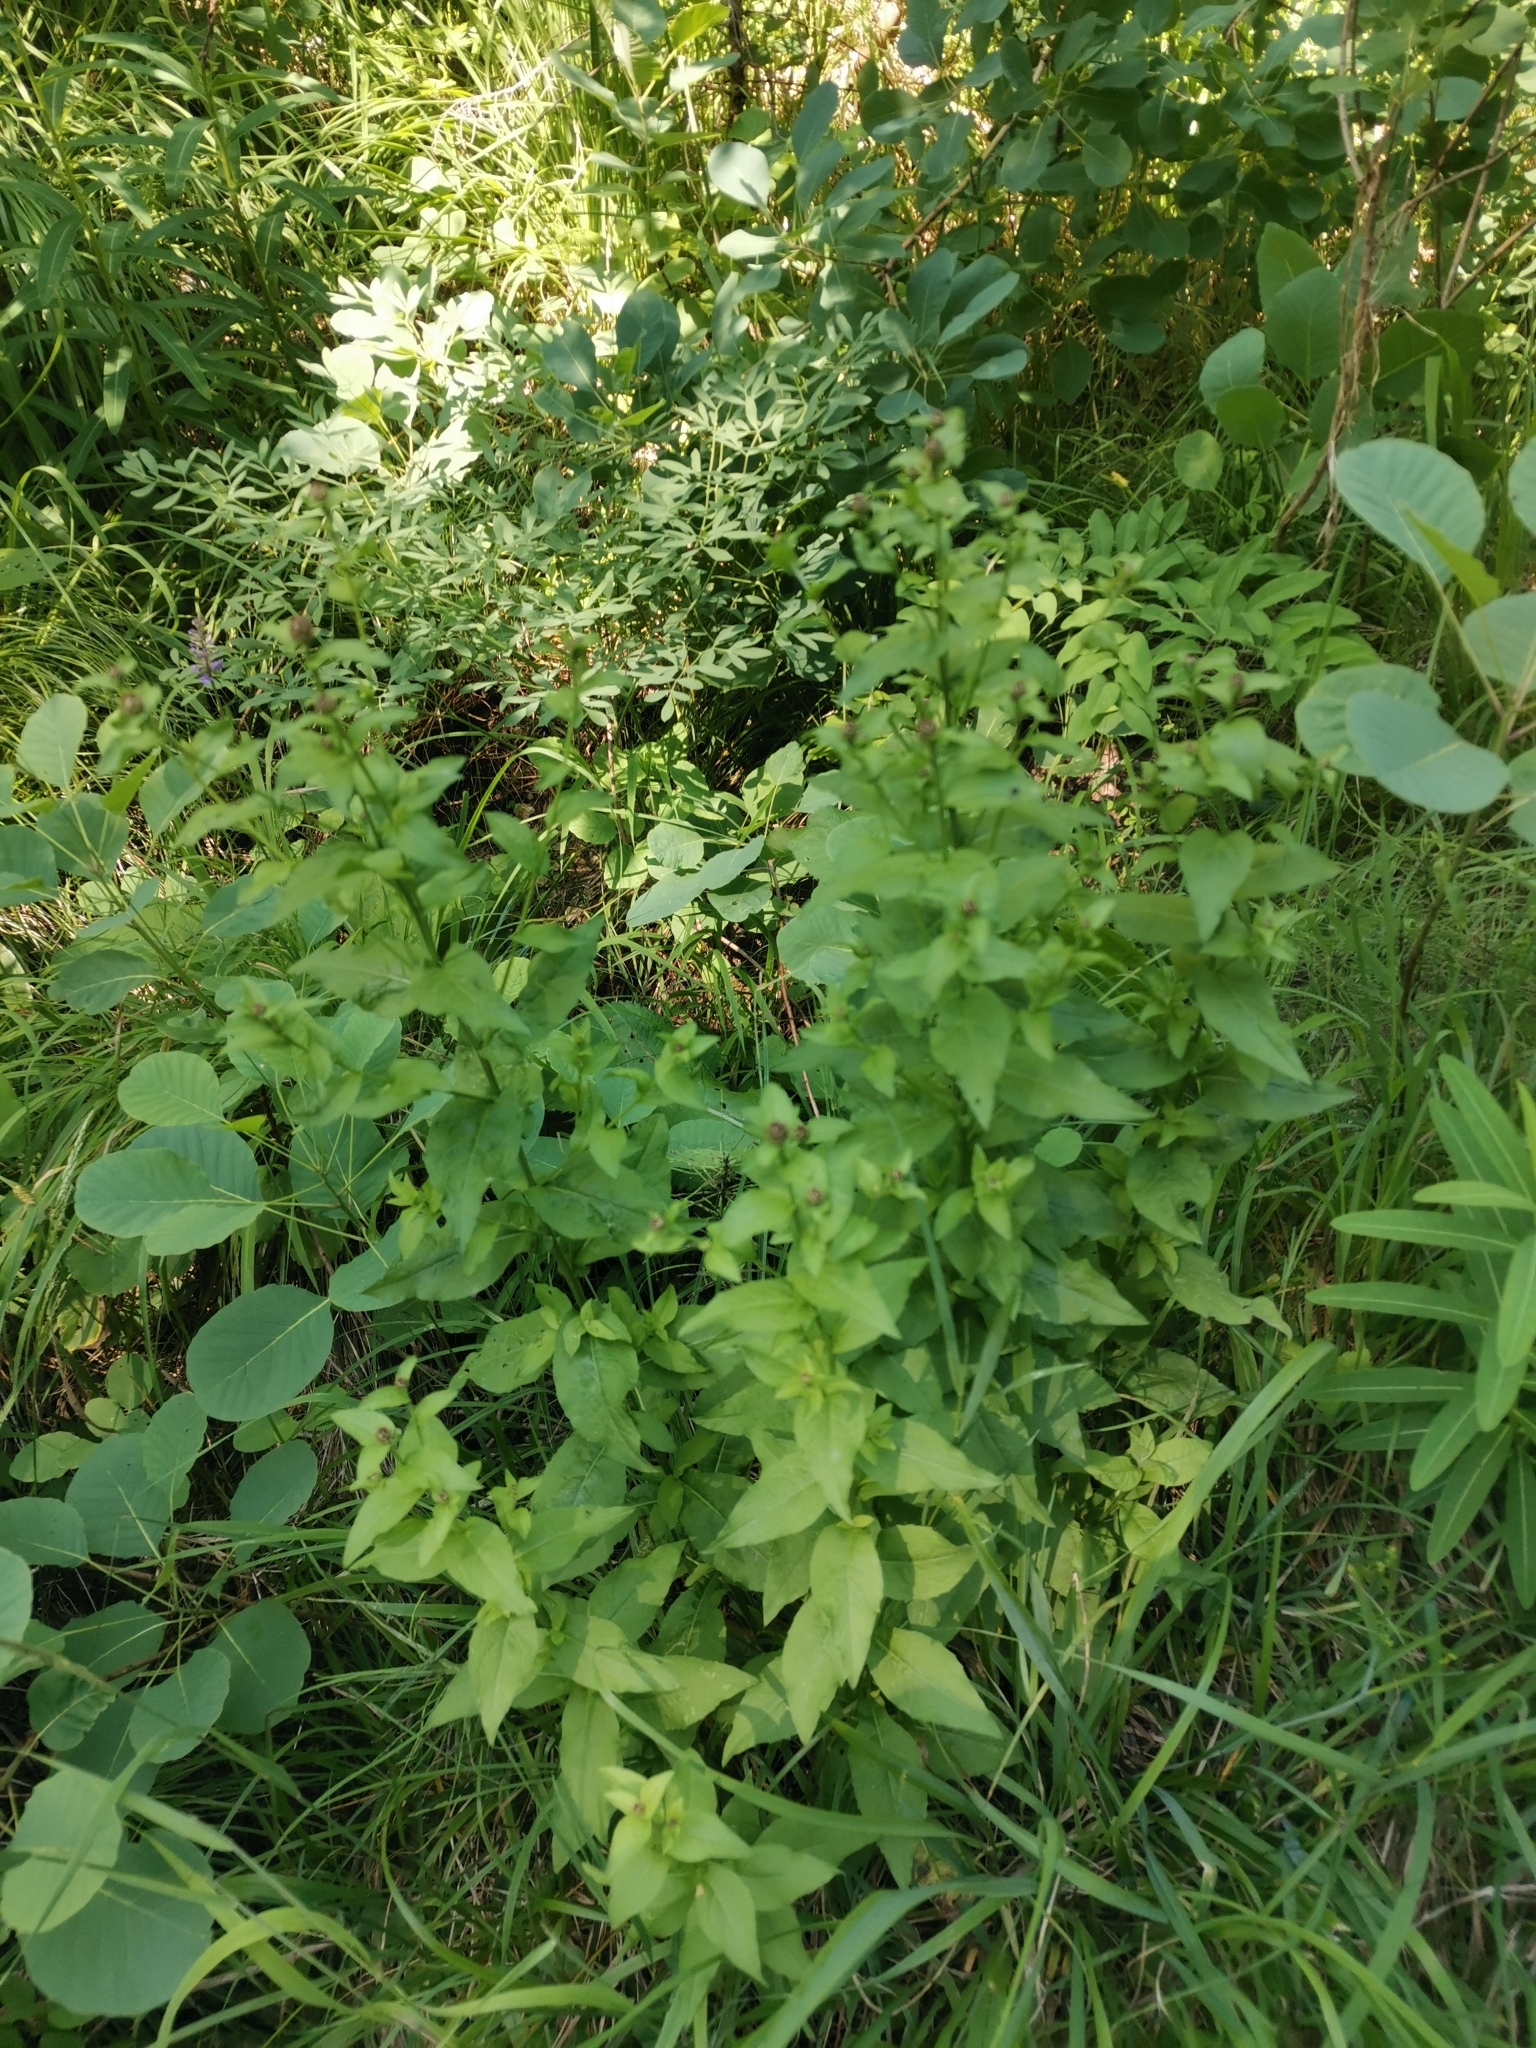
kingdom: Plantae
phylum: Tracheophyta
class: Magnoliopsida
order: Asterales
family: Asteraceae
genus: Centaurea
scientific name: Centaurea nigrescens
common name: Tyrol knapweed
